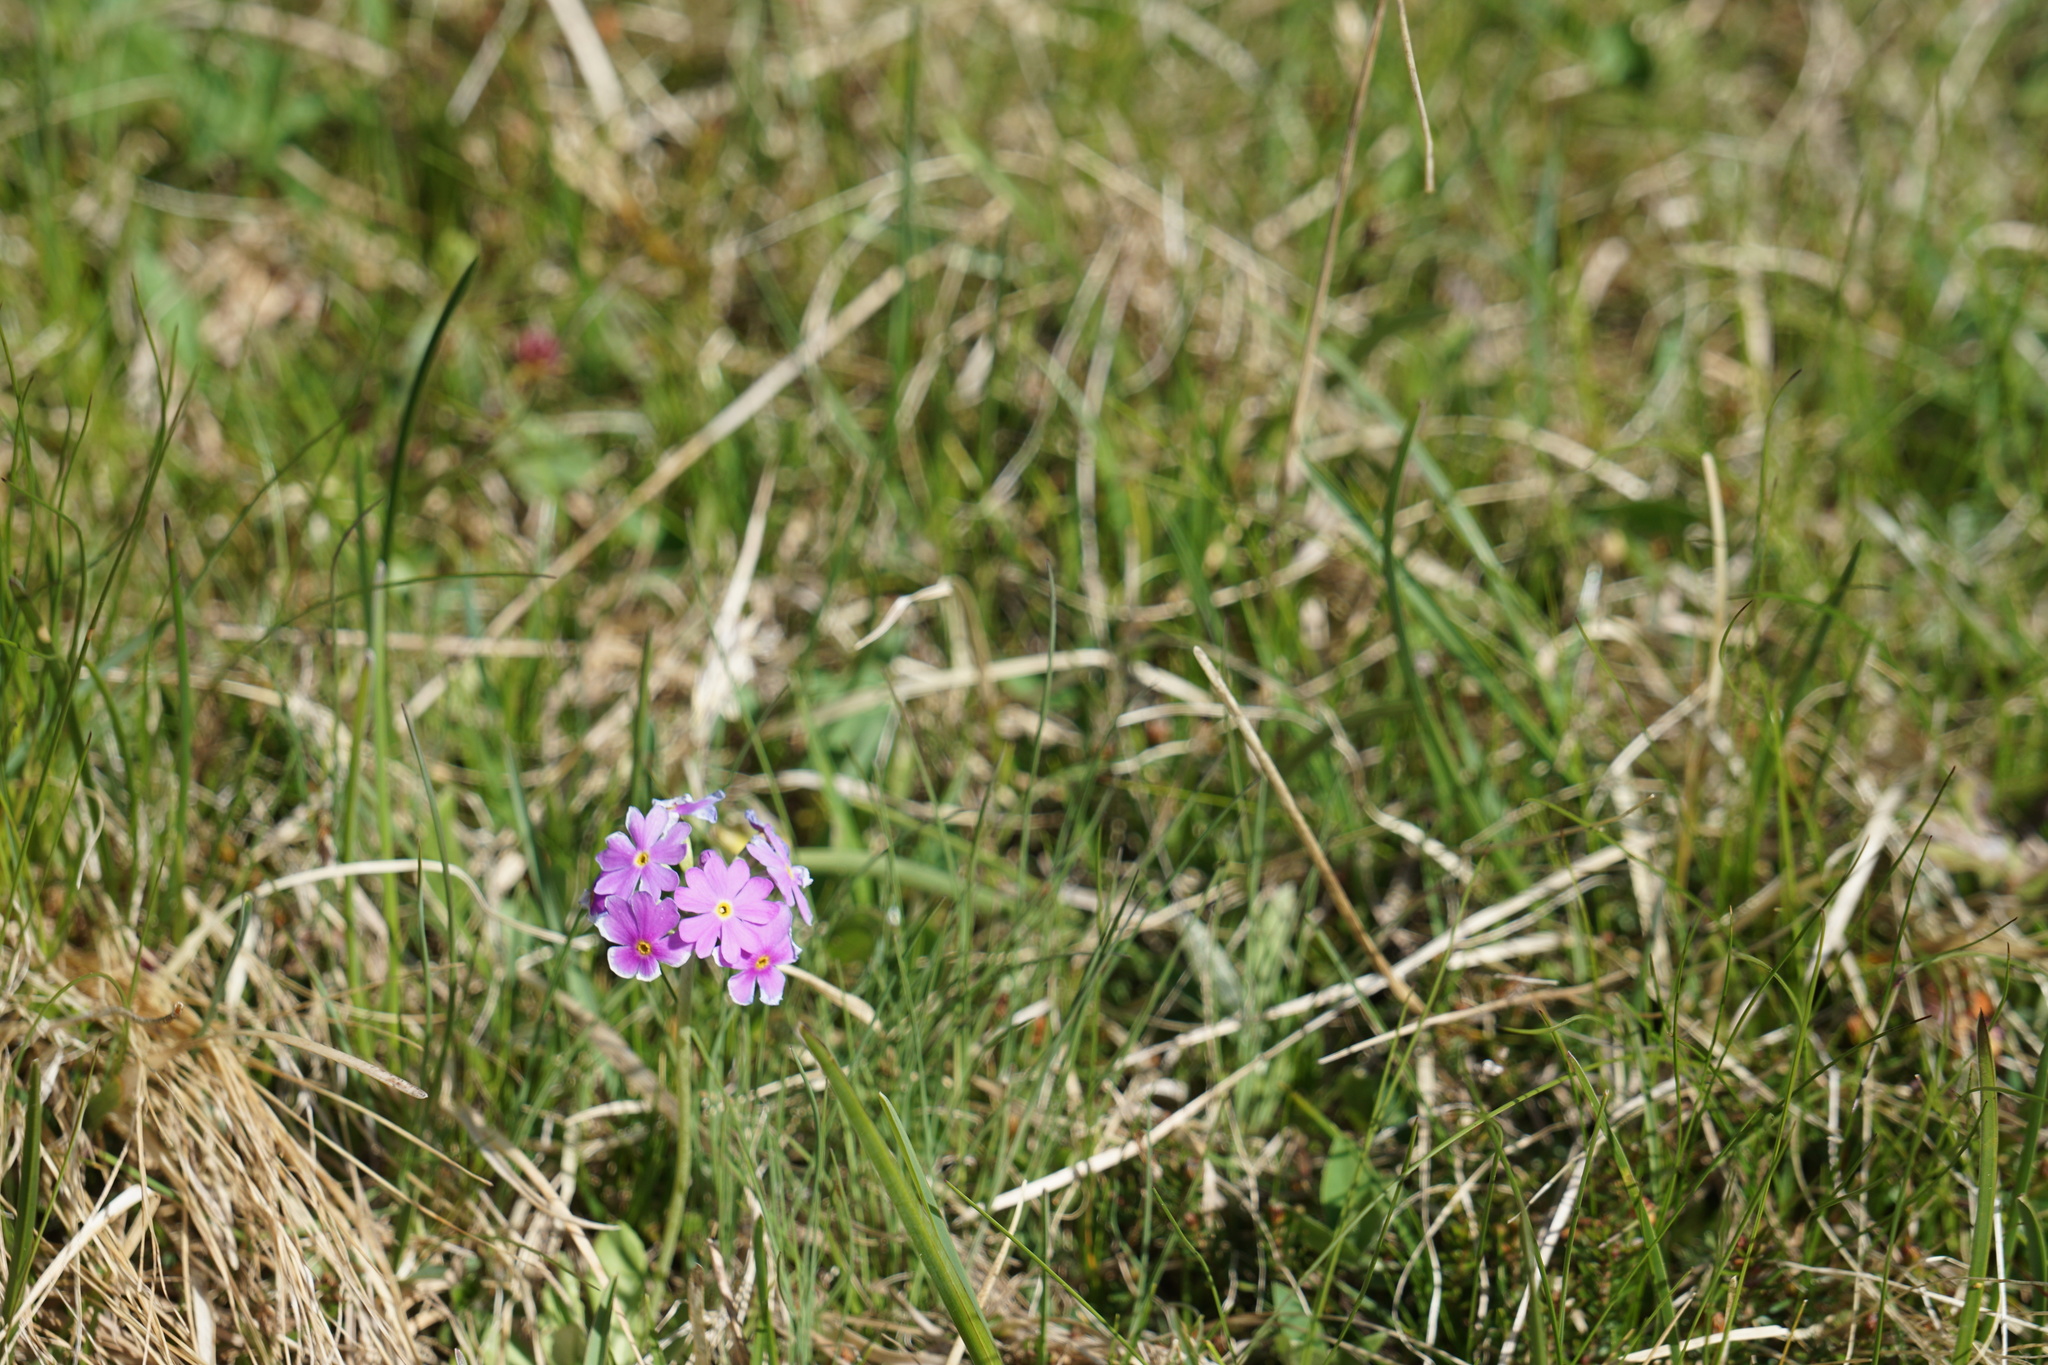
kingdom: Plantae
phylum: Tracheophyta
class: Magnoliopsida
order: Ericales
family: Primulaceae
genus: Primula
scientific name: Primula farinosa
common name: Bird's-eye primrose
